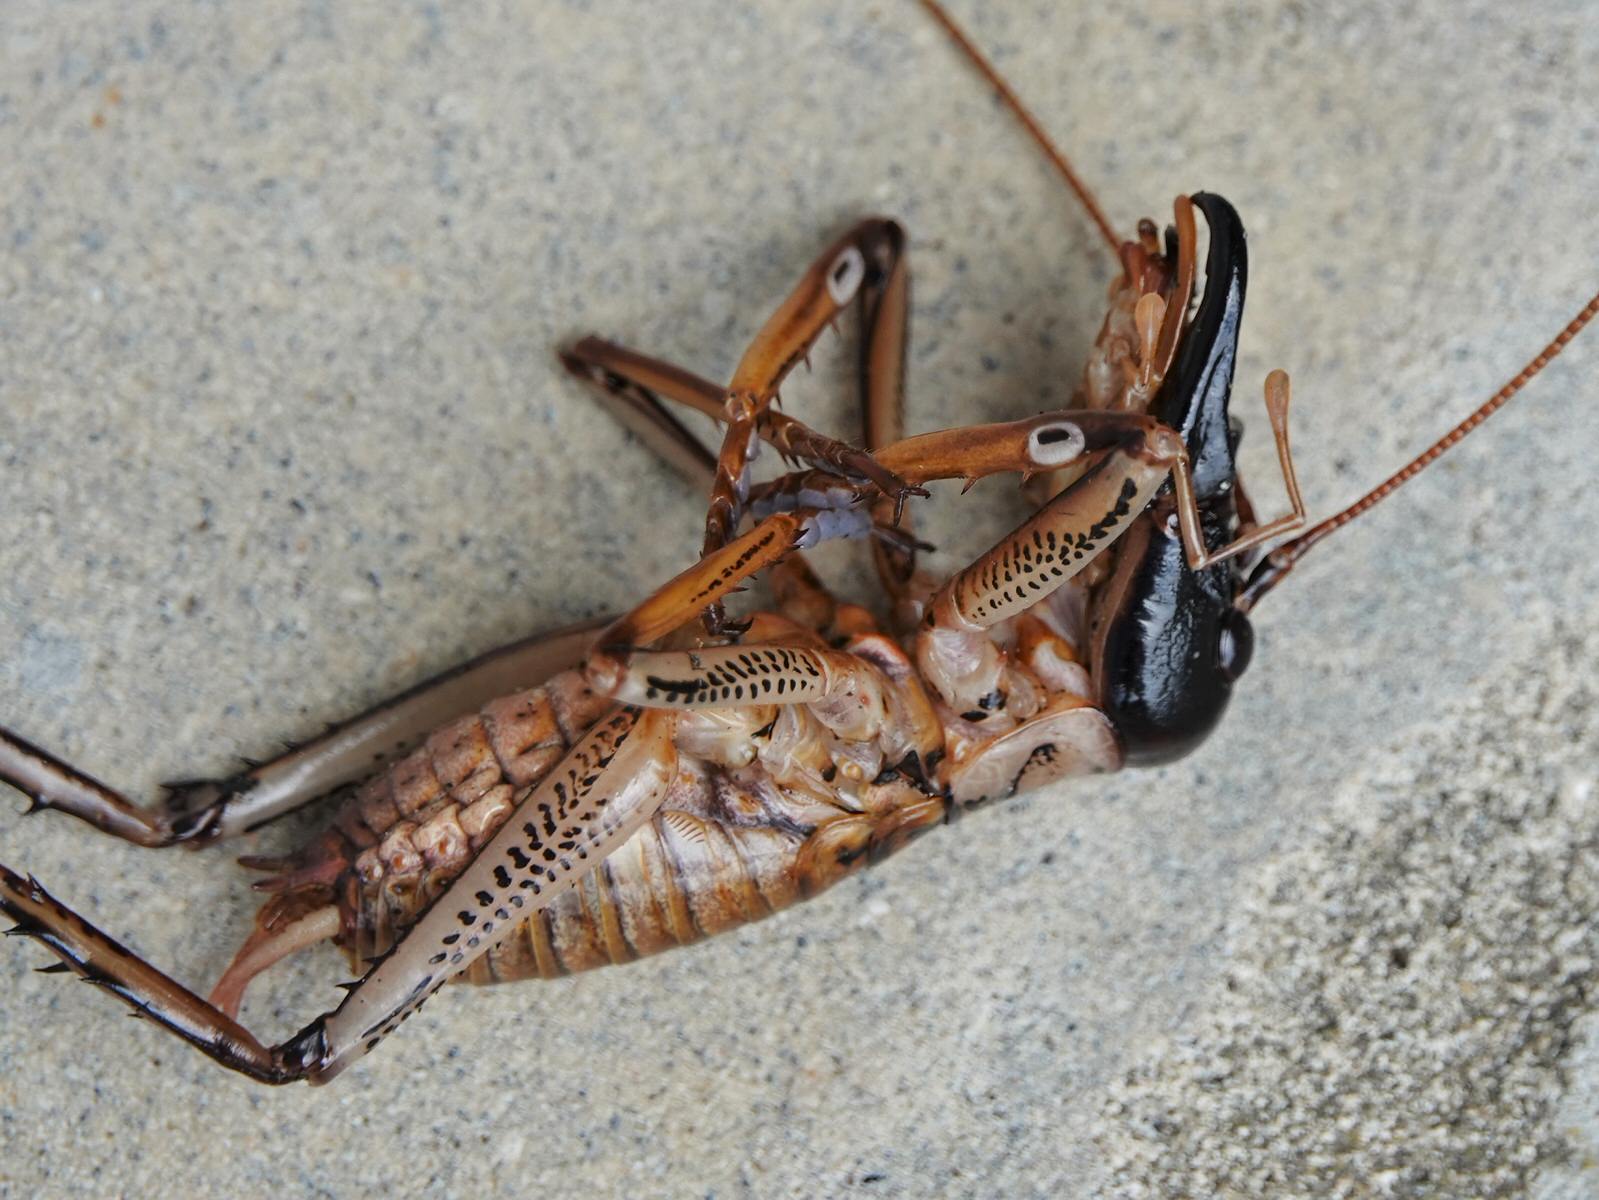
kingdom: Animalia
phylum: Arthropoda
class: Insecta
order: Orthoptera
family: Anostostomatidae
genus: Hemideina
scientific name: Hemideina thoracica
